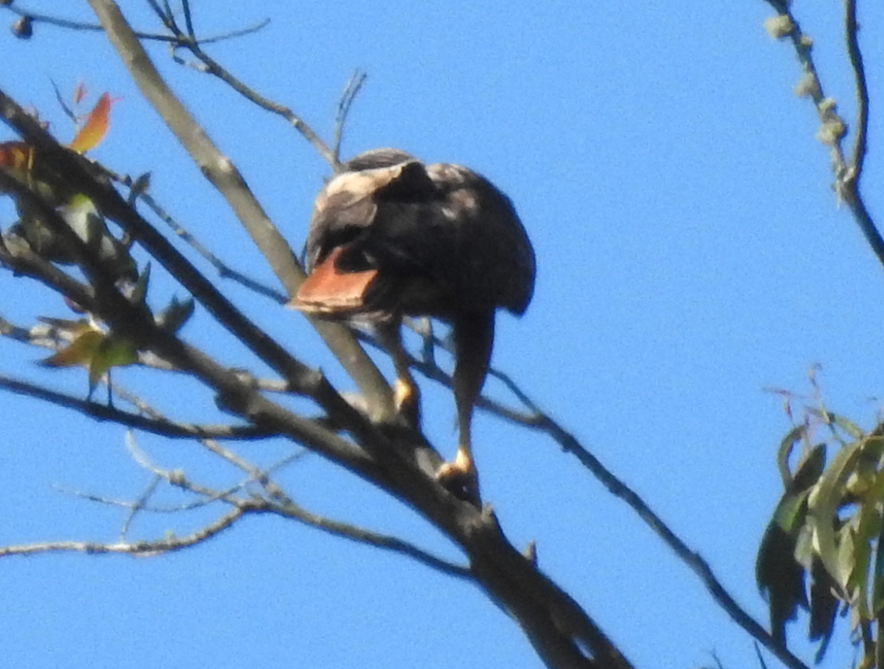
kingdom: Animalia
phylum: Chordata
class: Aves
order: Accipitriformes
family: Accipitridae
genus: Buteo
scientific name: Buteo jamaicensis
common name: Red-tailed hawk
